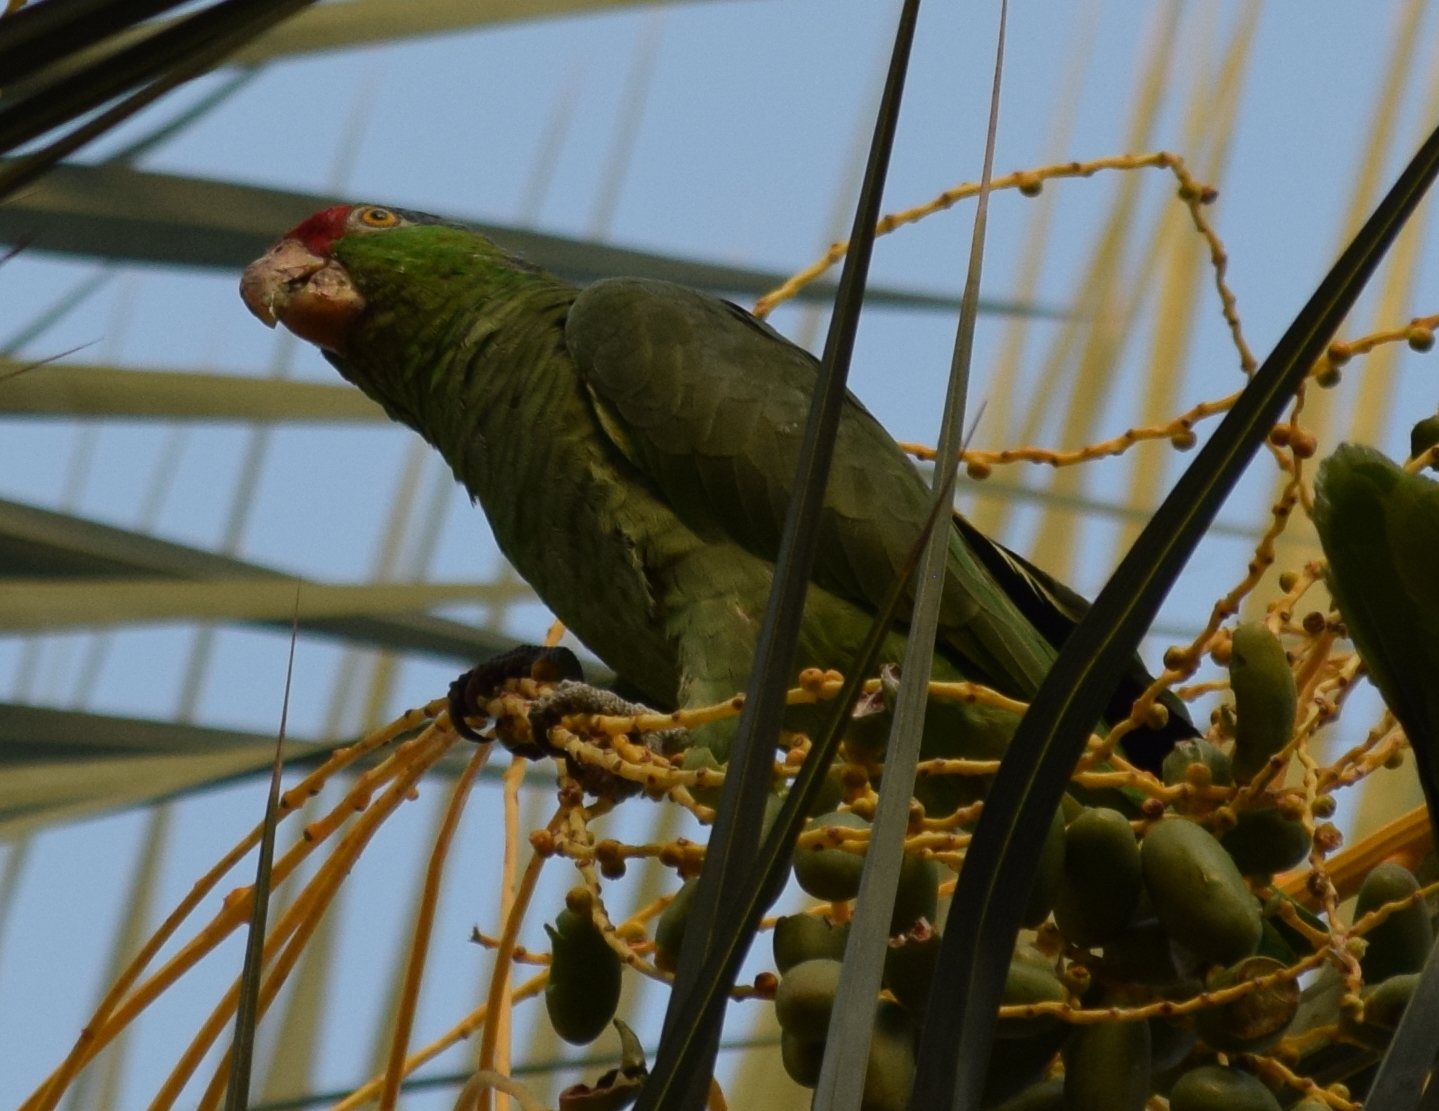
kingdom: Animalia
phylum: Chordata
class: Aves
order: Psittaciformes
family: Psittacidae
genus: Amazona
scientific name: Amazona viridigenalis
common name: Red-crowned amazon
